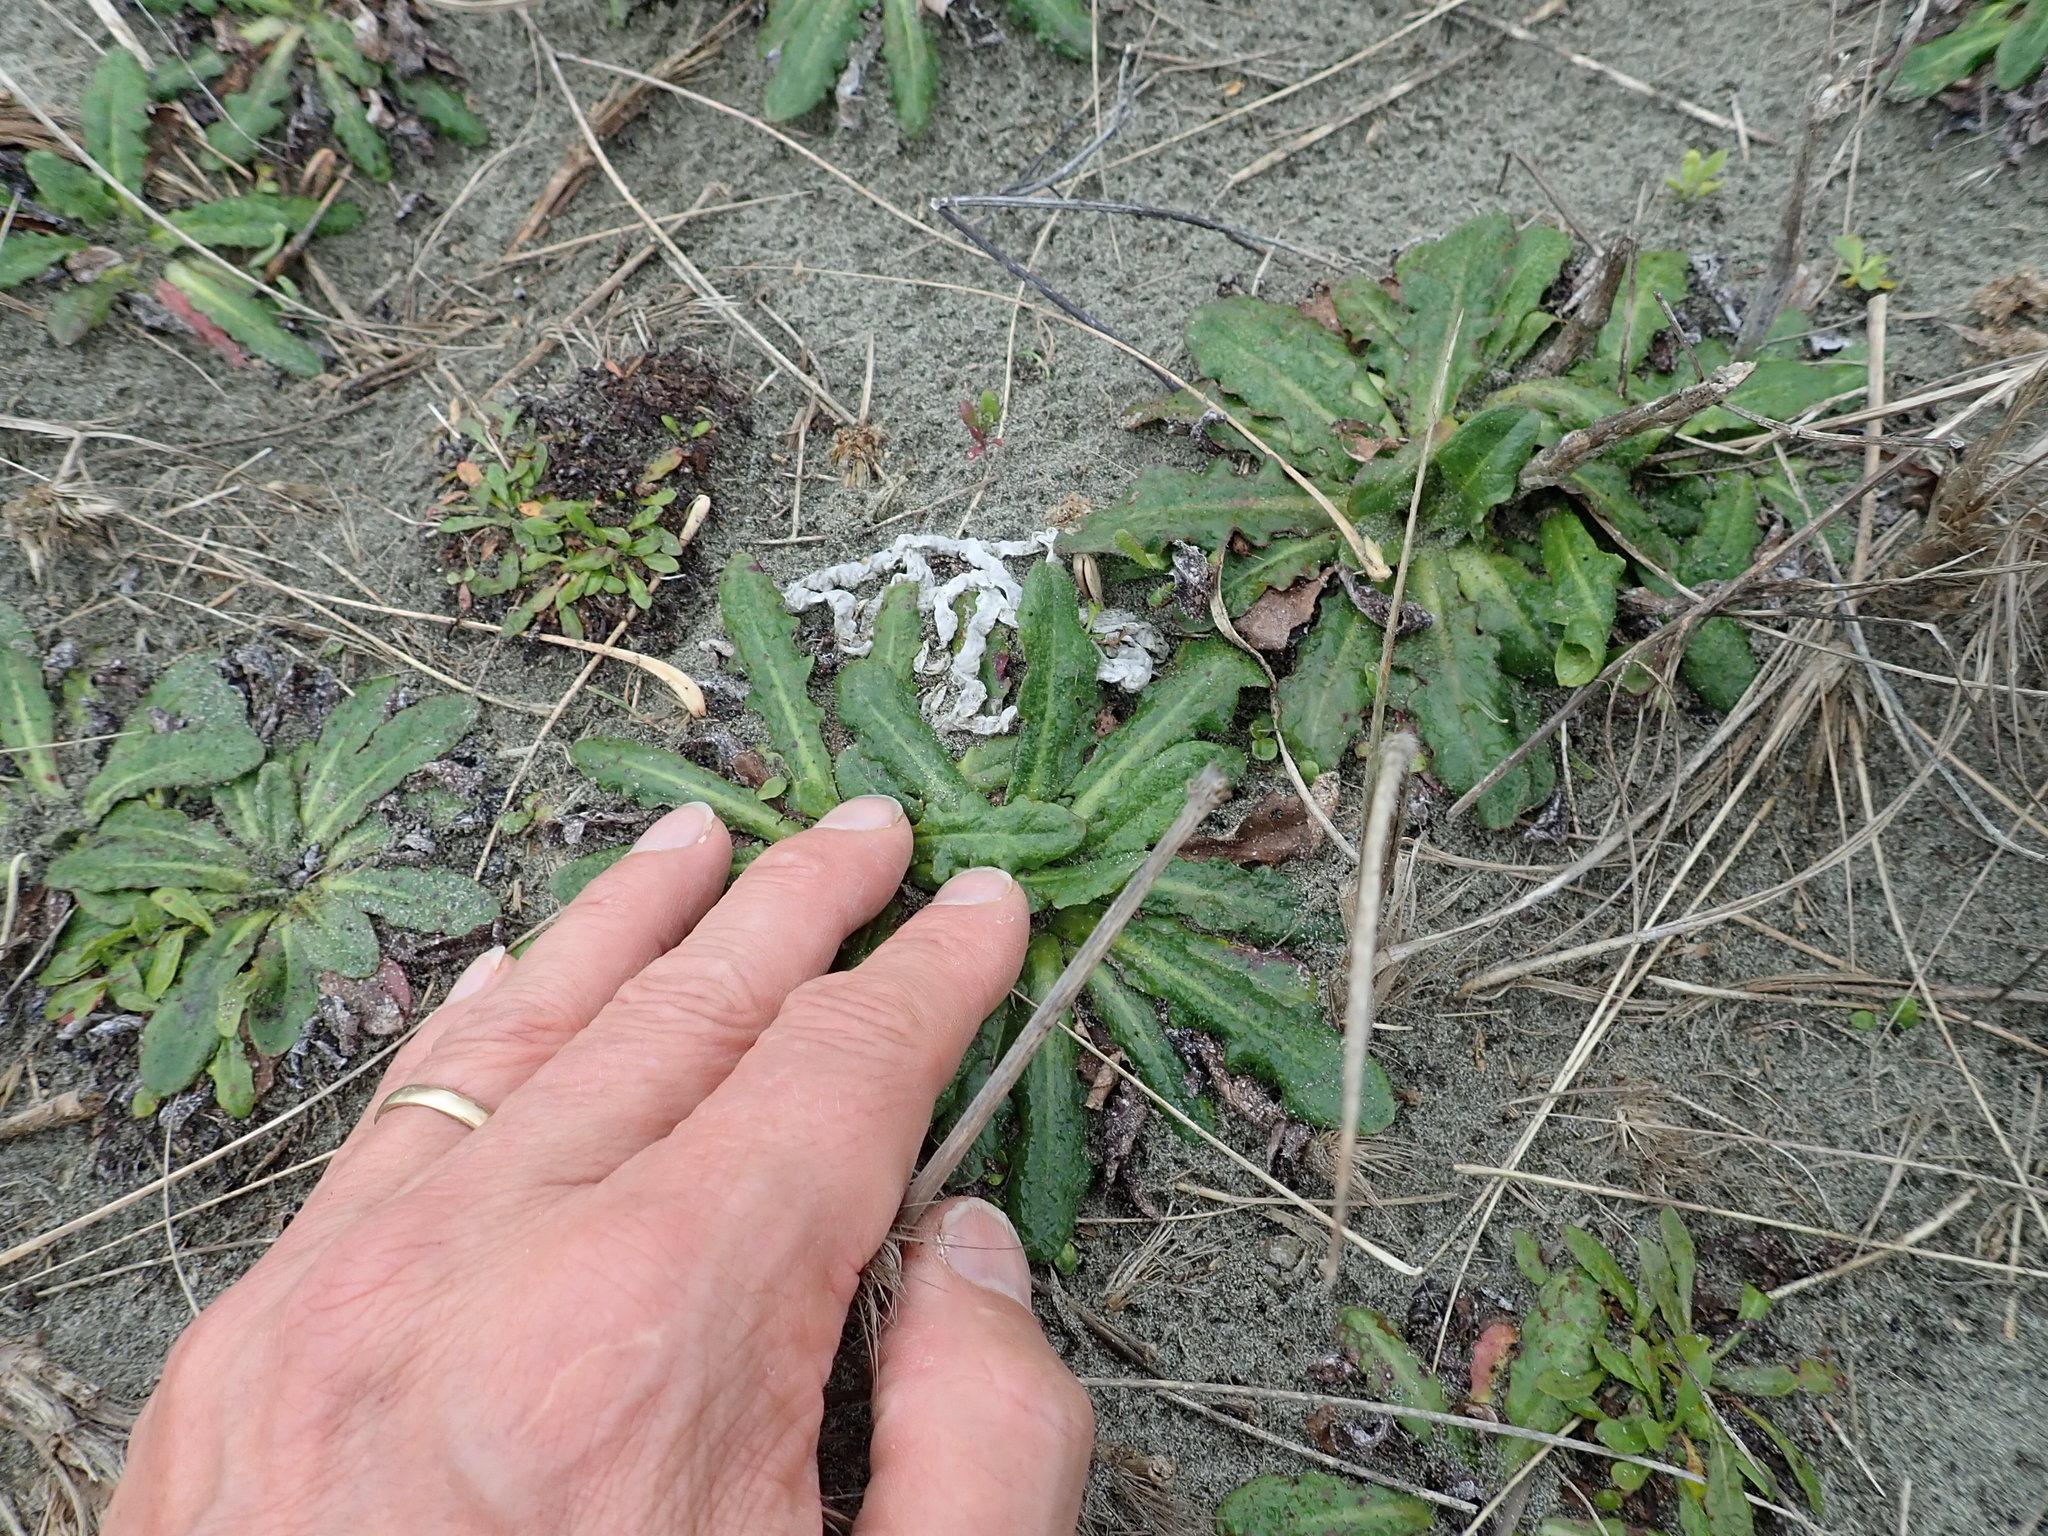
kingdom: Fungi
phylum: Basidiomycota
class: Agaricomycetes
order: Phallales
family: Phallaceae
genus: Ileodictyon
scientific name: Ileodictyon cibarium
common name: Basket fungus
